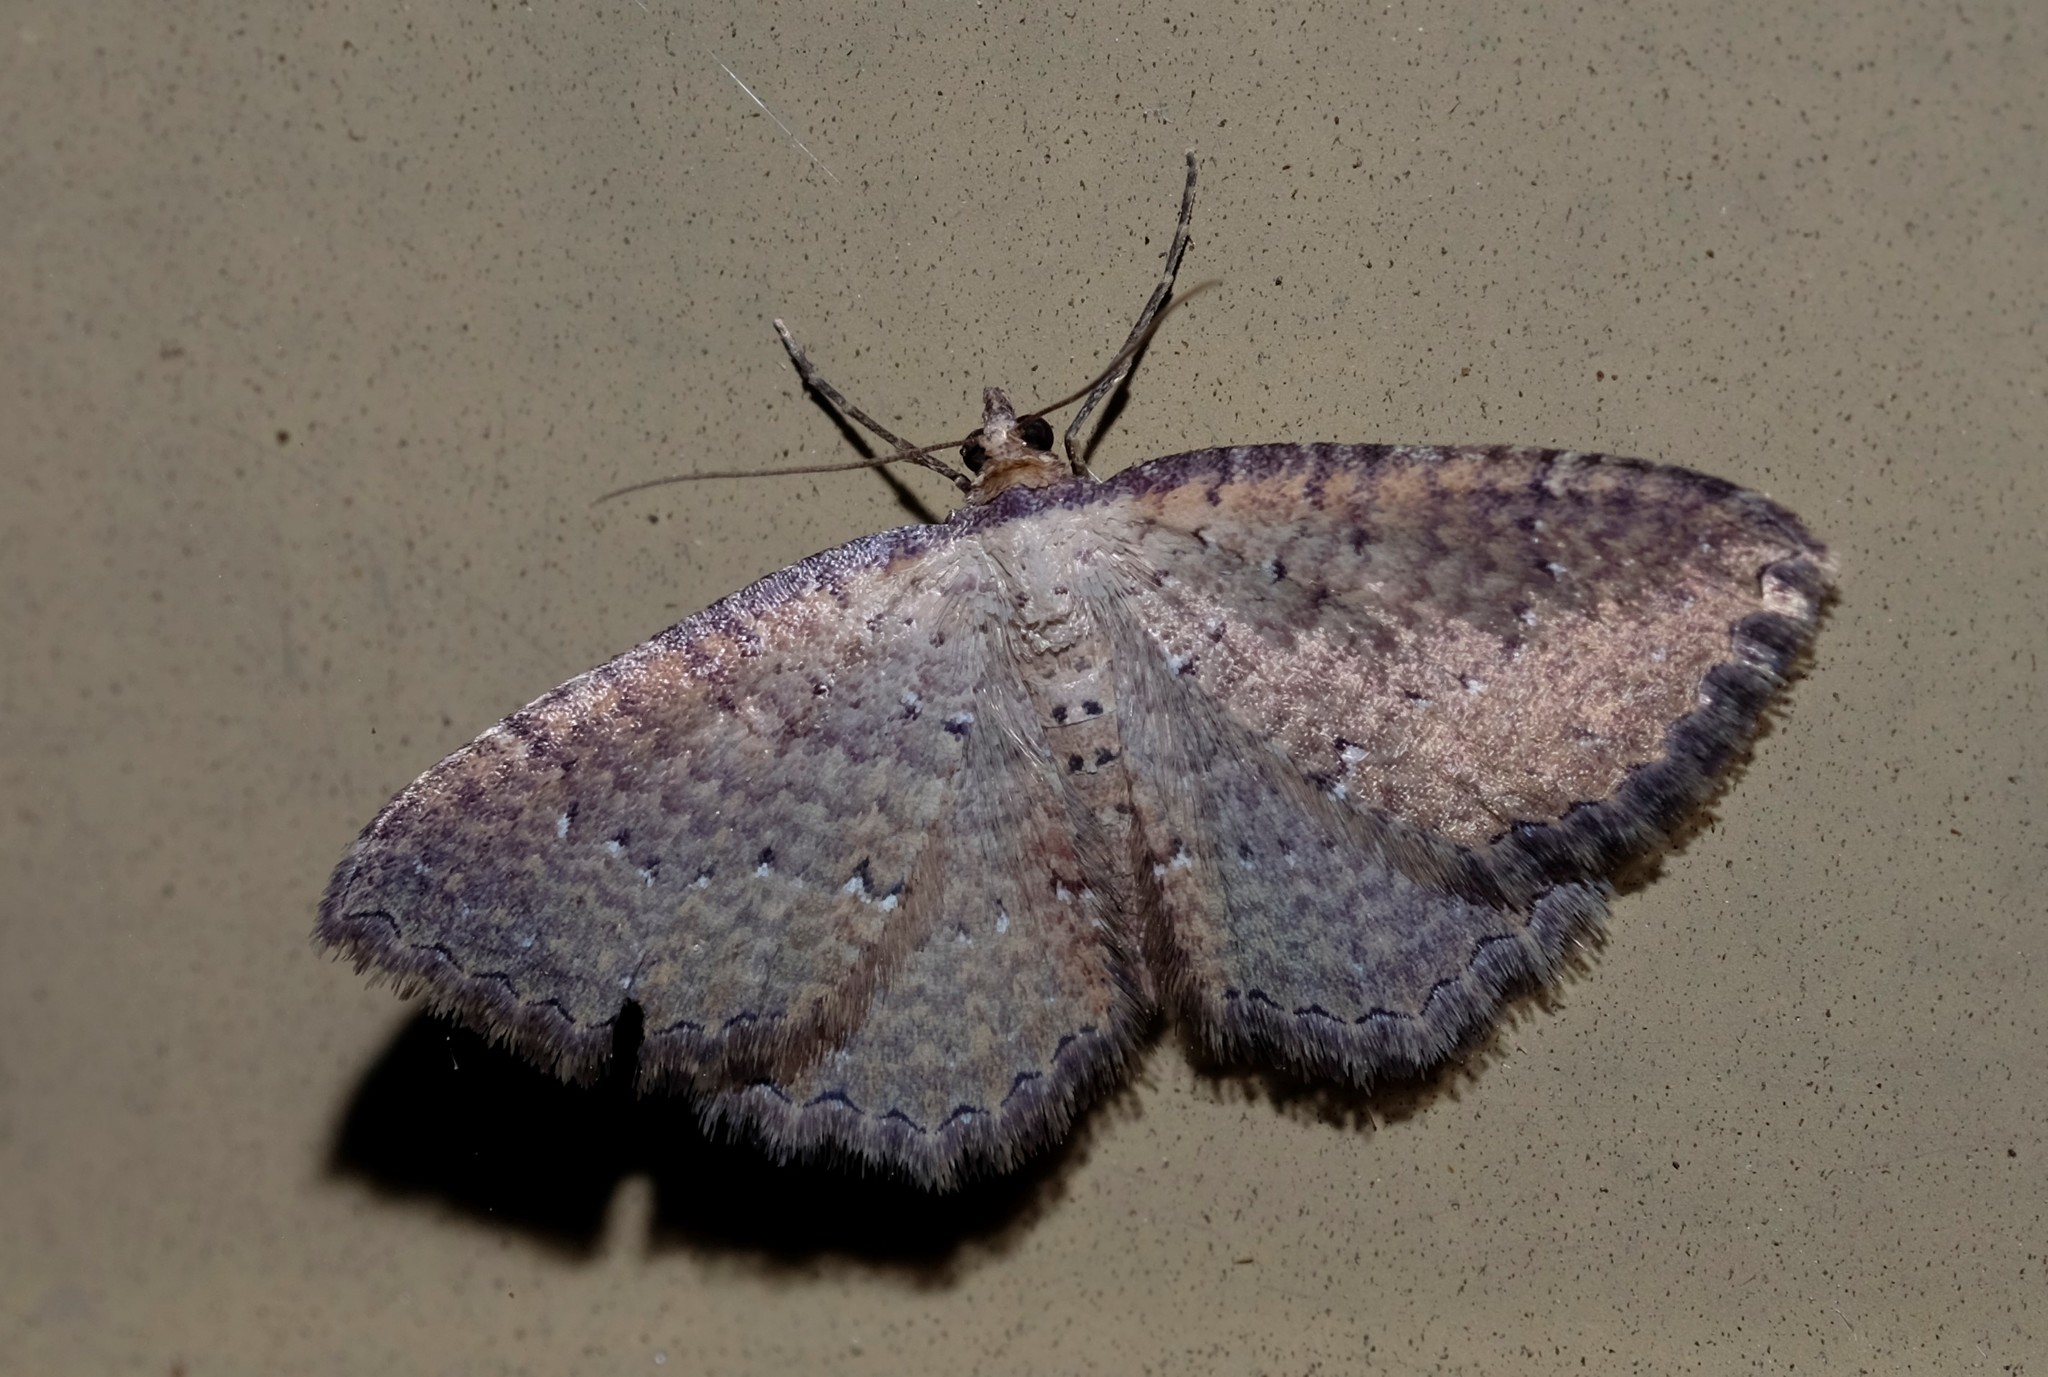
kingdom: Animalia
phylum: Arthropoda
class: Insecta
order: Lepidoptera
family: Geometridae
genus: Chrysolarentia
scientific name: Chrysolarentia microcyma
